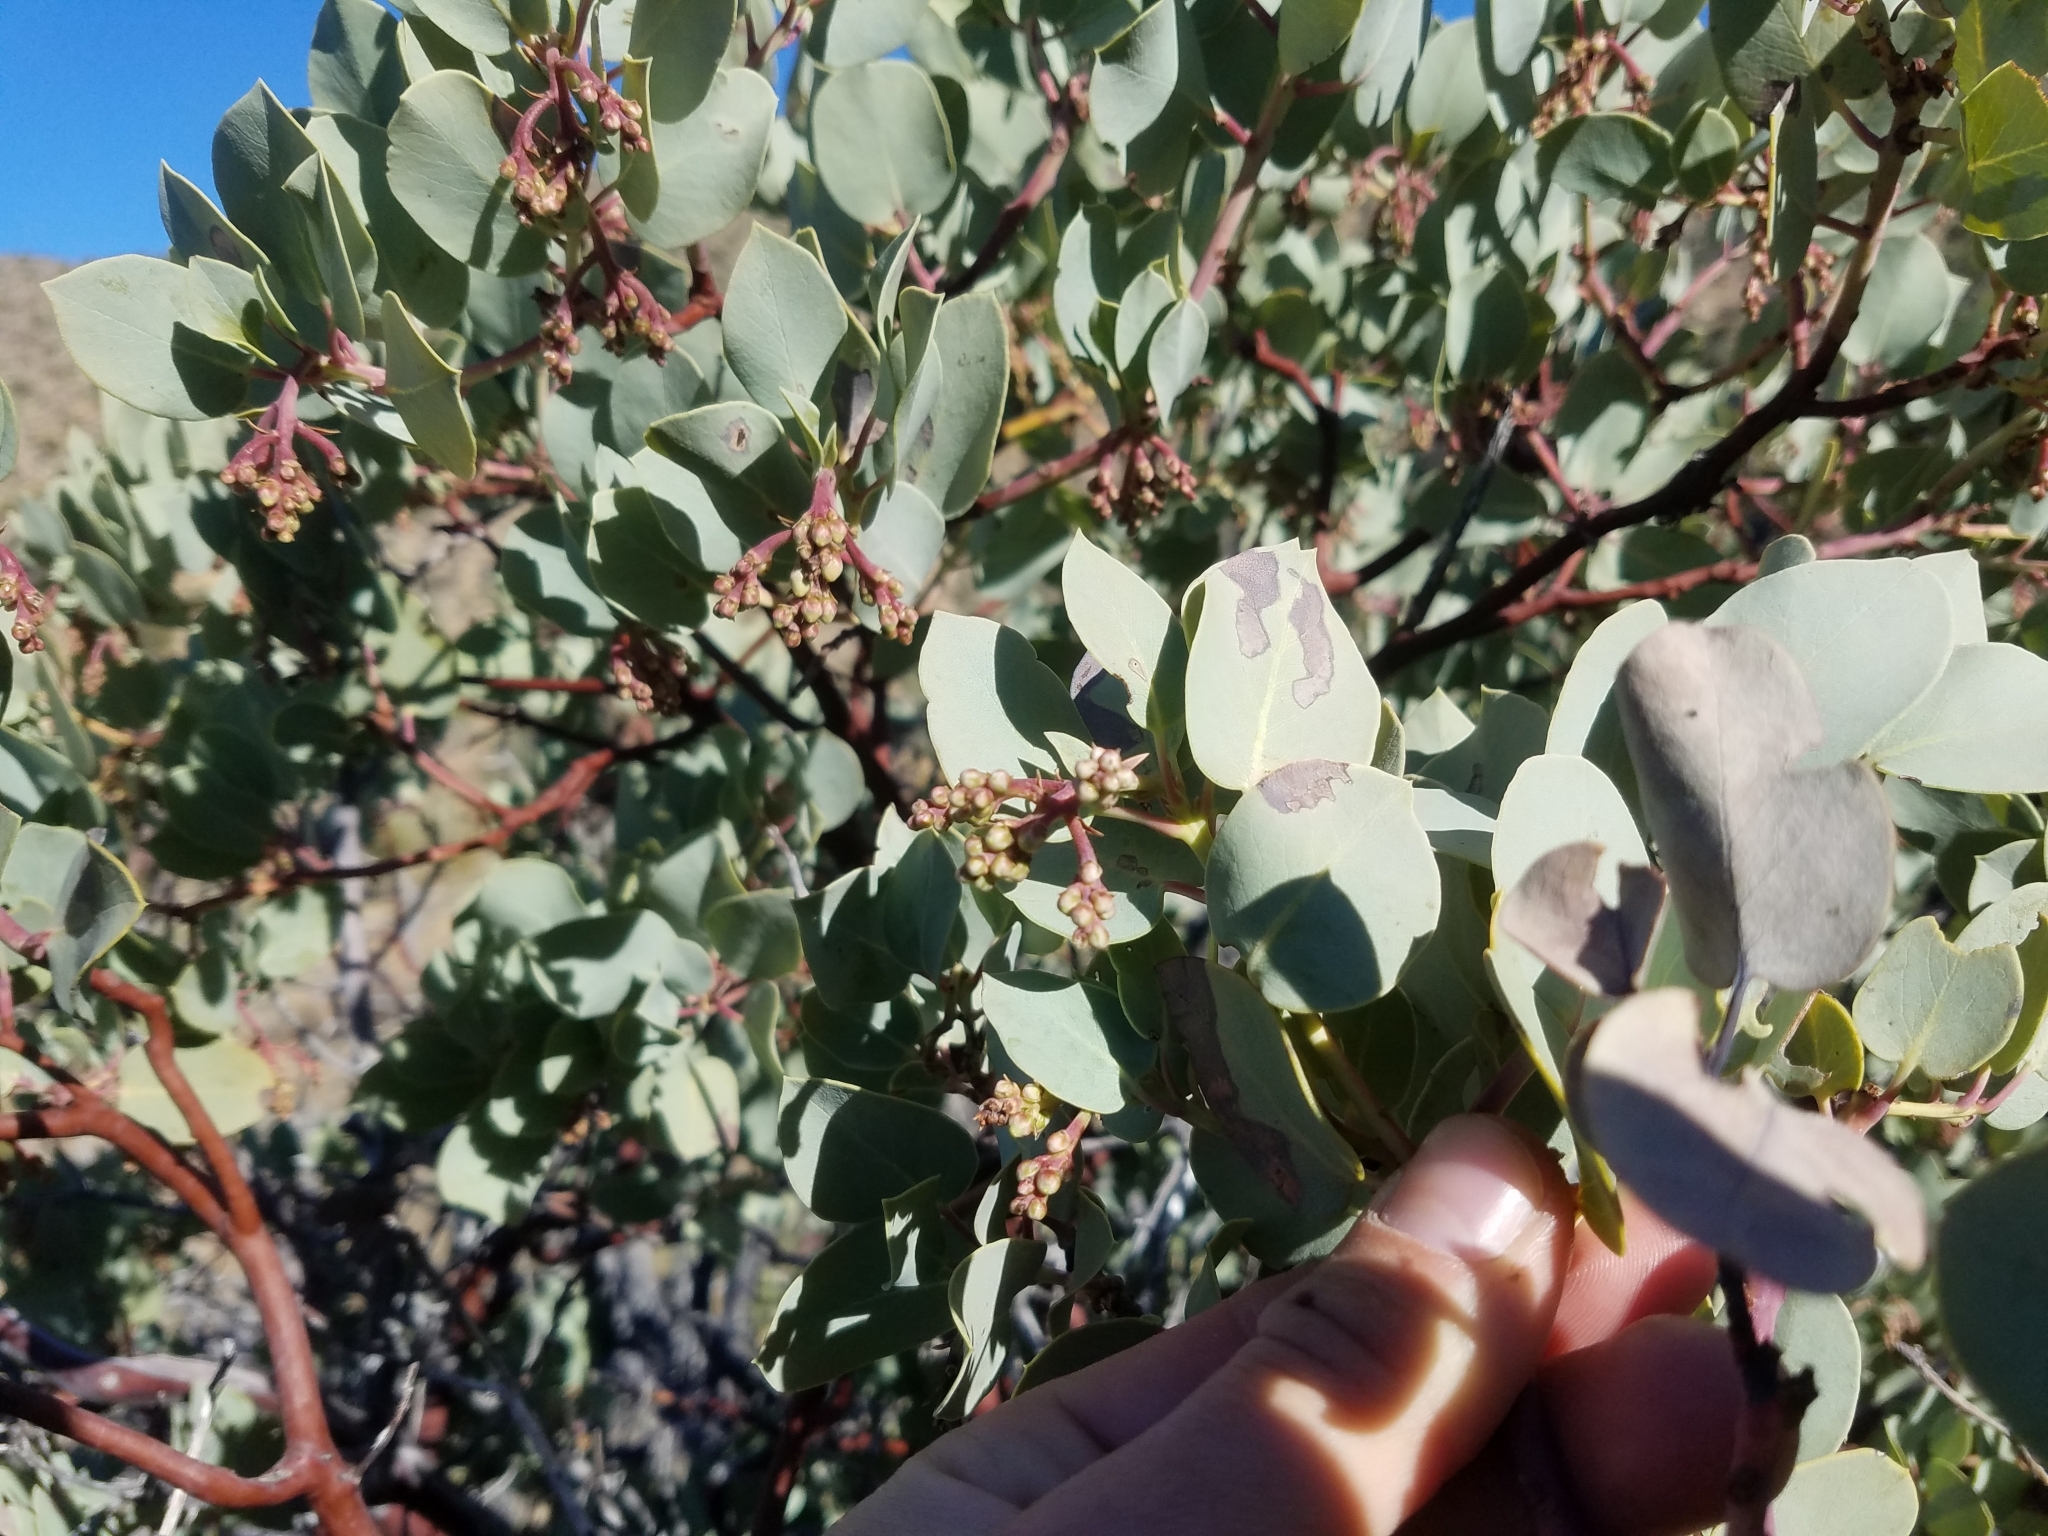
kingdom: Plantae
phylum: Tracheophyta
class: Magnoliopsida
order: Ericales
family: Ericaceae
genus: Arctostaphylos
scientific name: Arctostaphylos glauca
